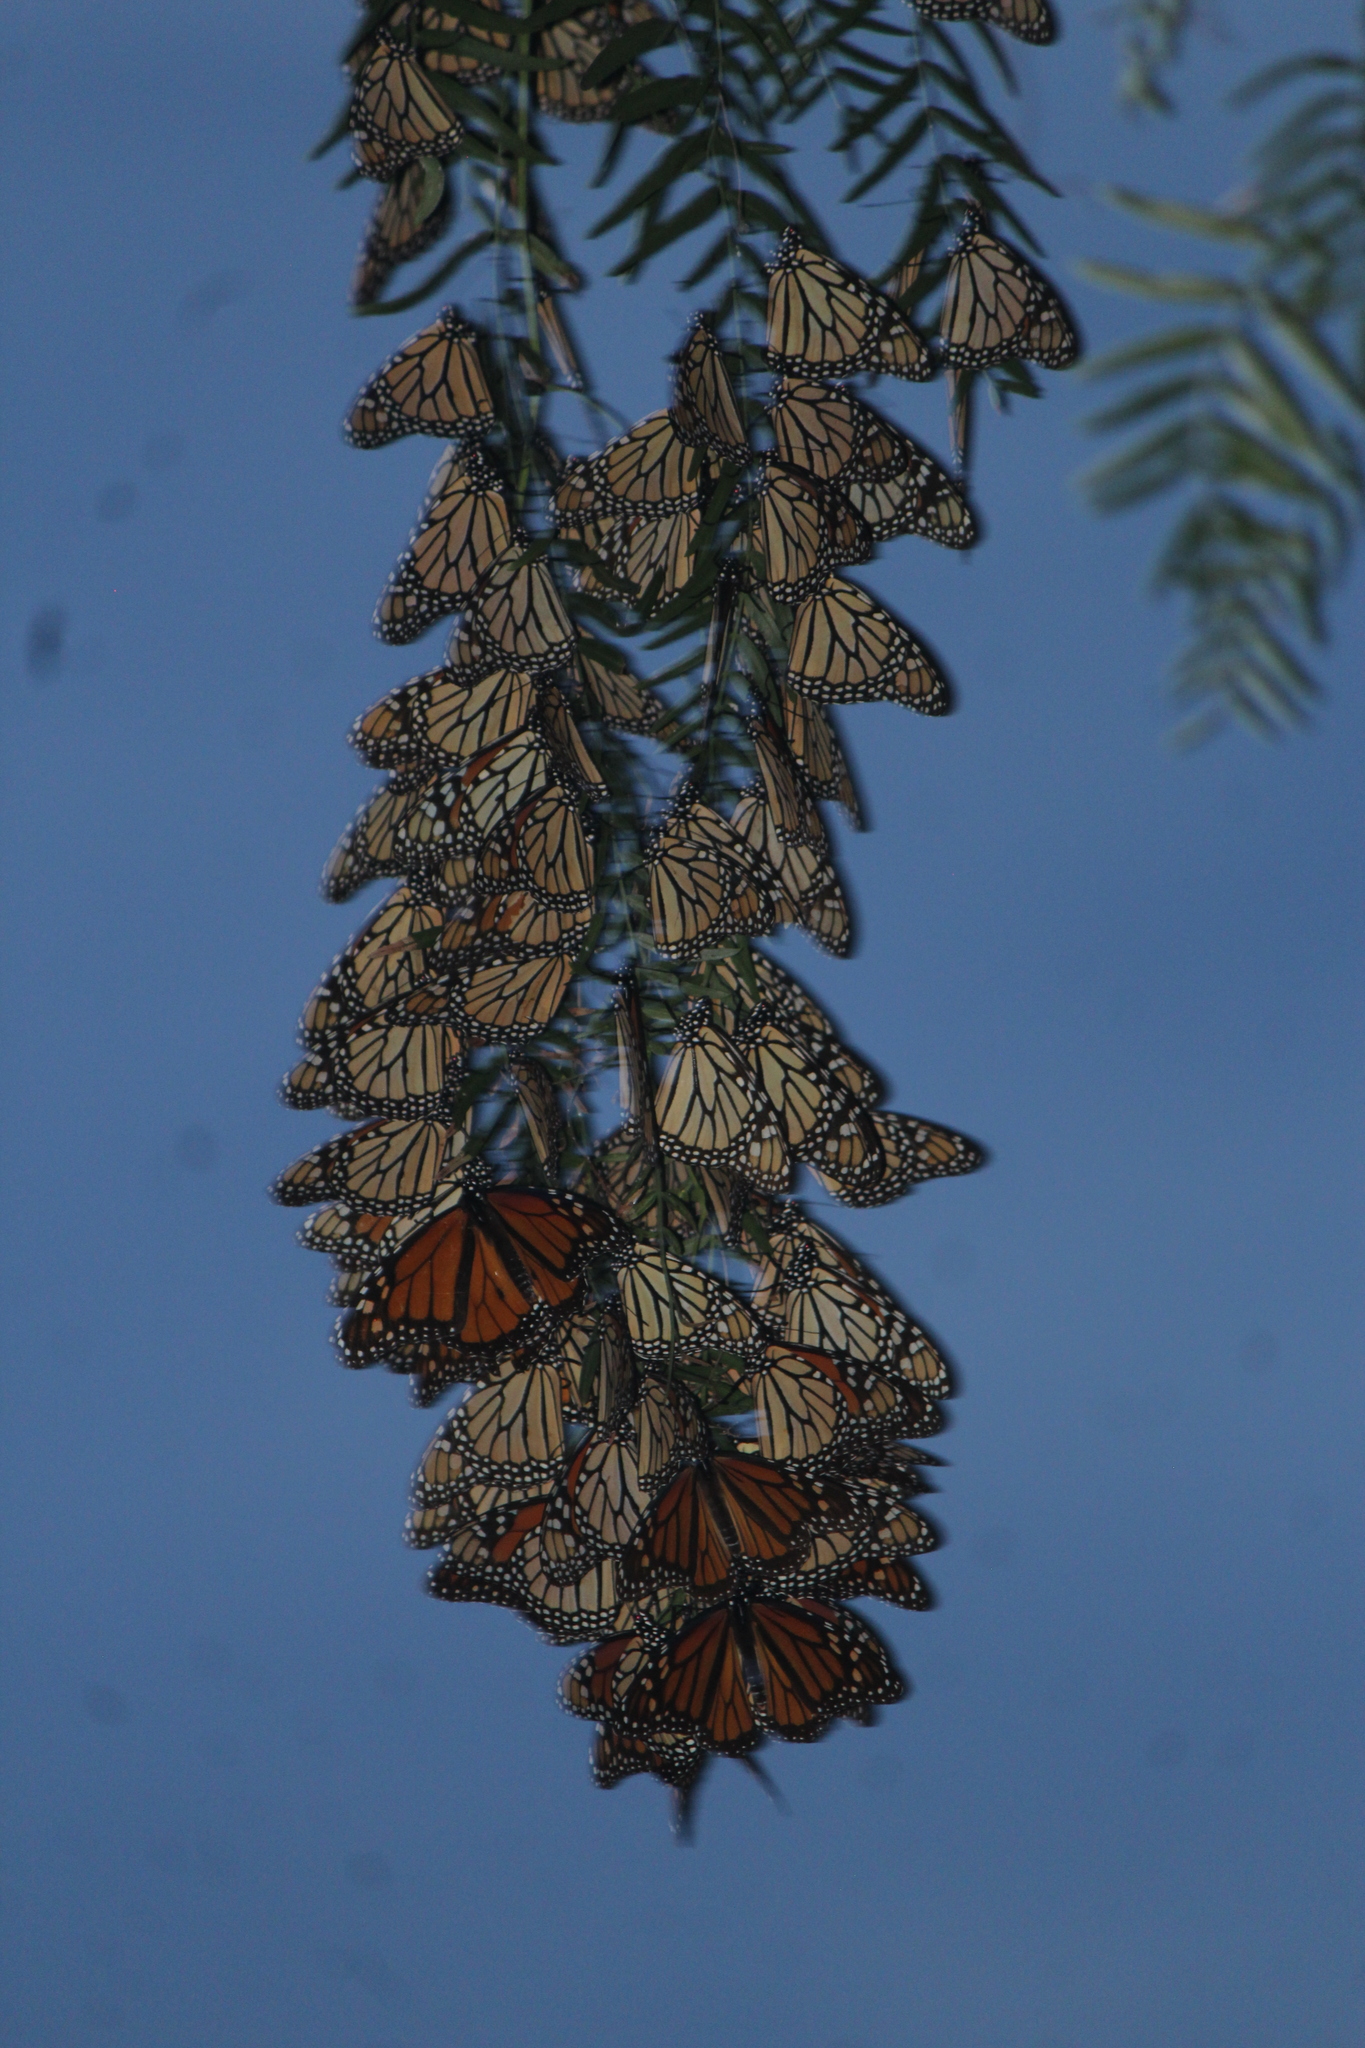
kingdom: Animalia
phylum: Arthropoda
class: Insecta
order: Lepidoptera
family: Nymphalidae
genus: Danaus
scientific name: Danaus plexippus
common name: Monarch
